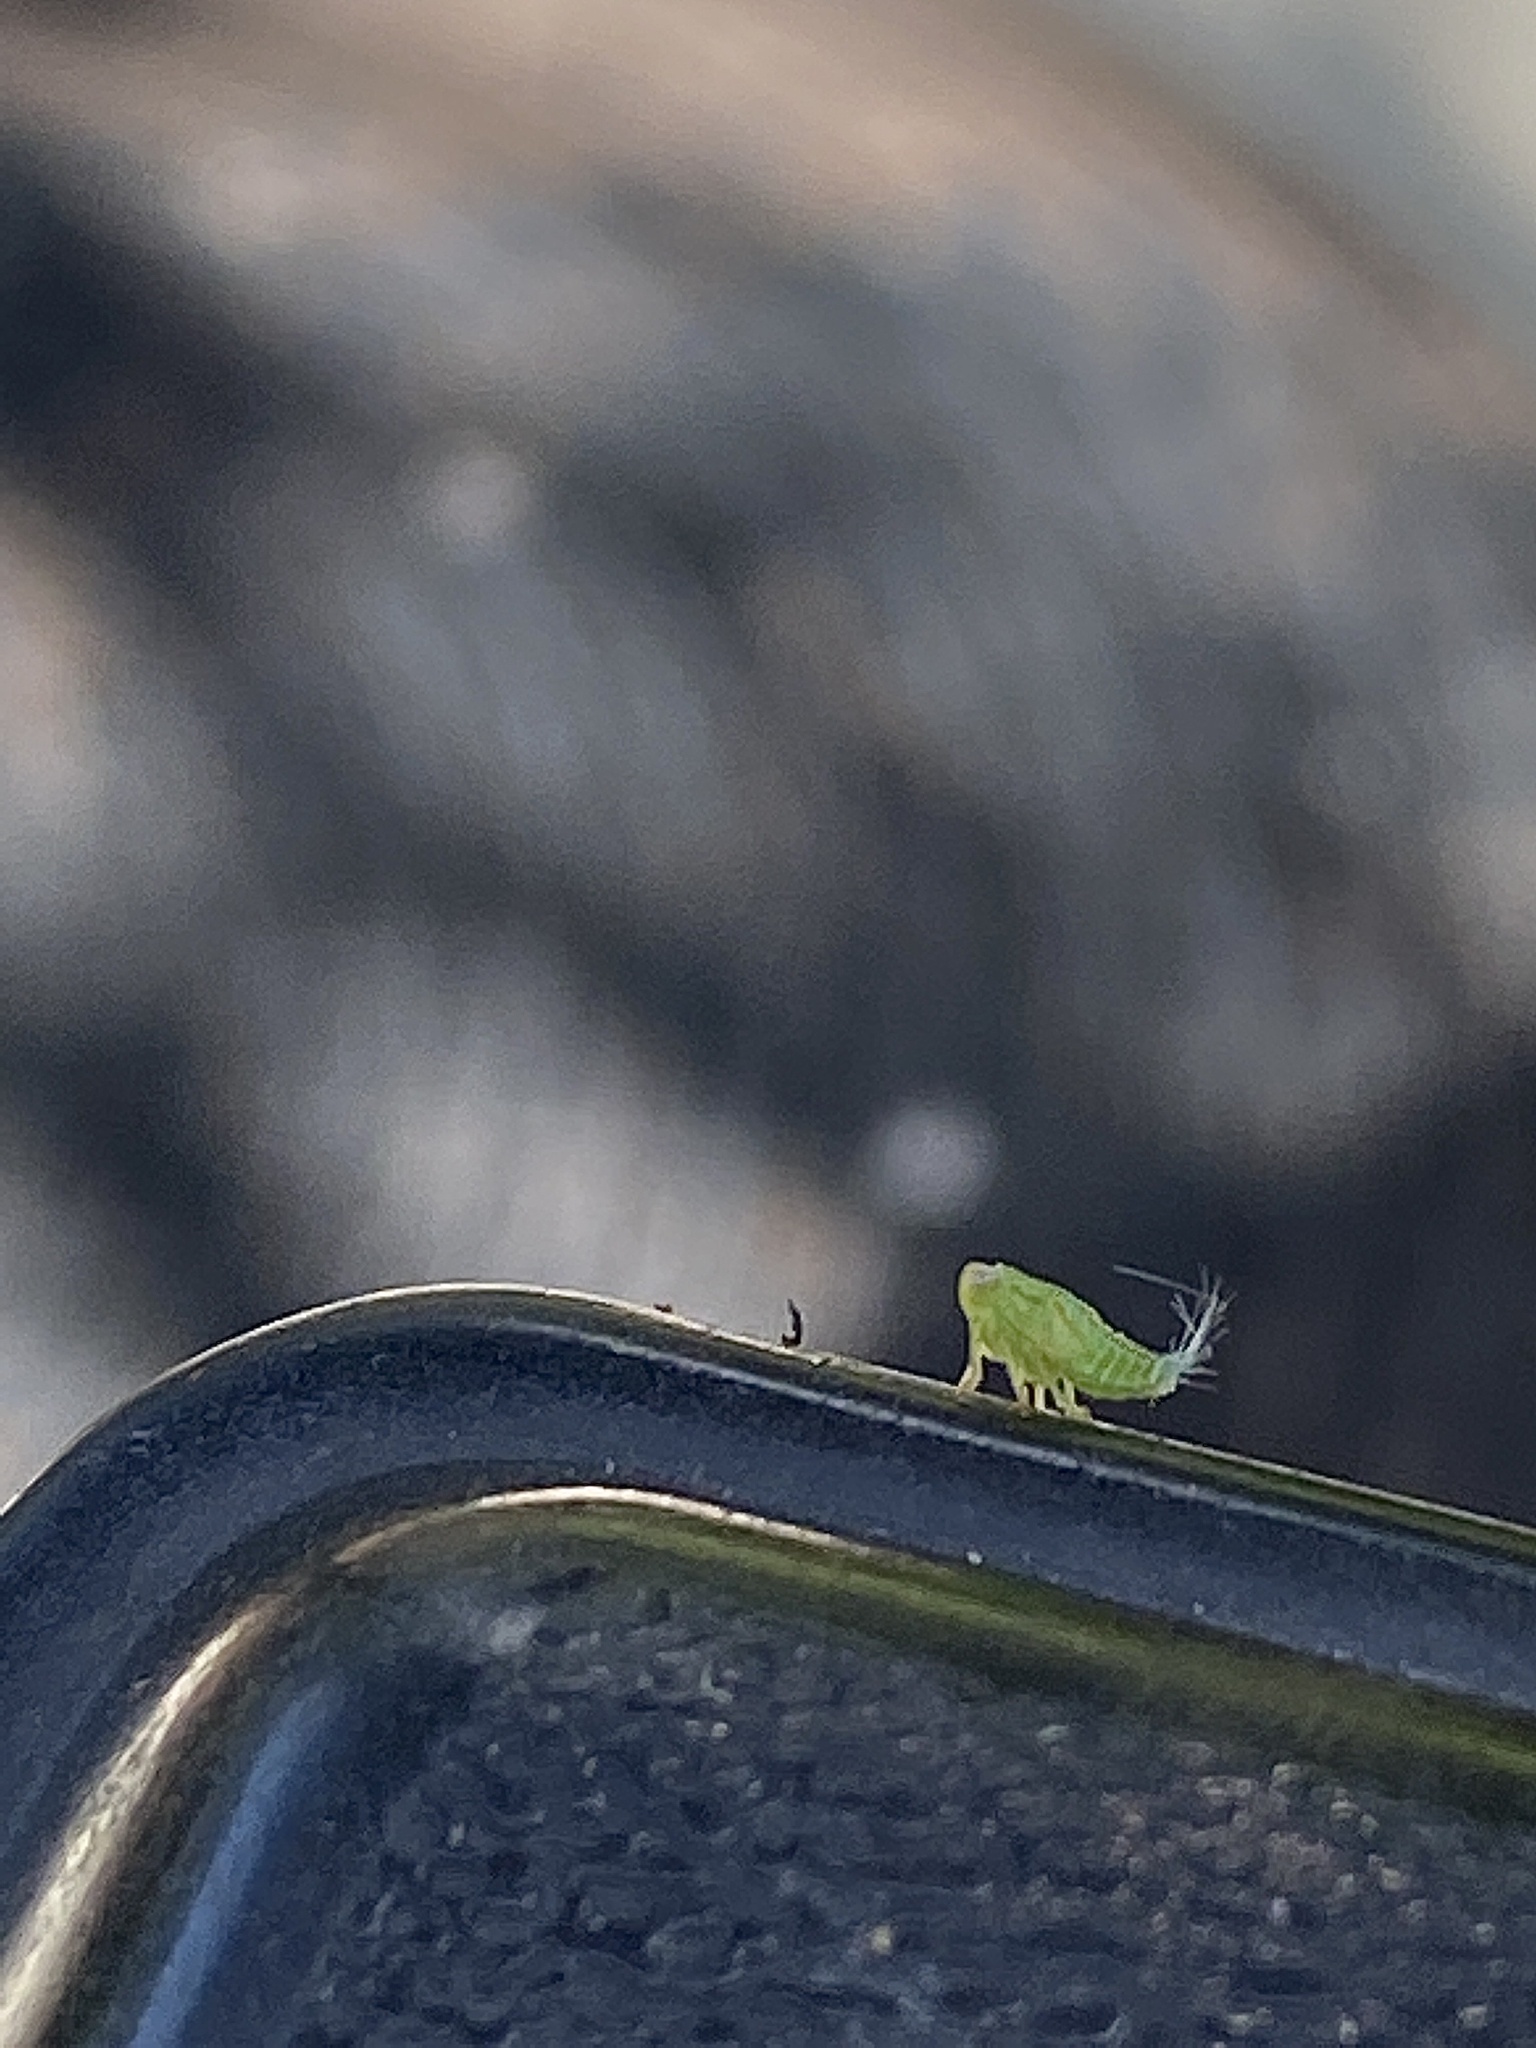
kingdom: Animalia
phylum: Arthropoda
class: Insecta
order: Hemiptera
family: Issidae
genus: Aplos
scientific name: Aplos simplex
